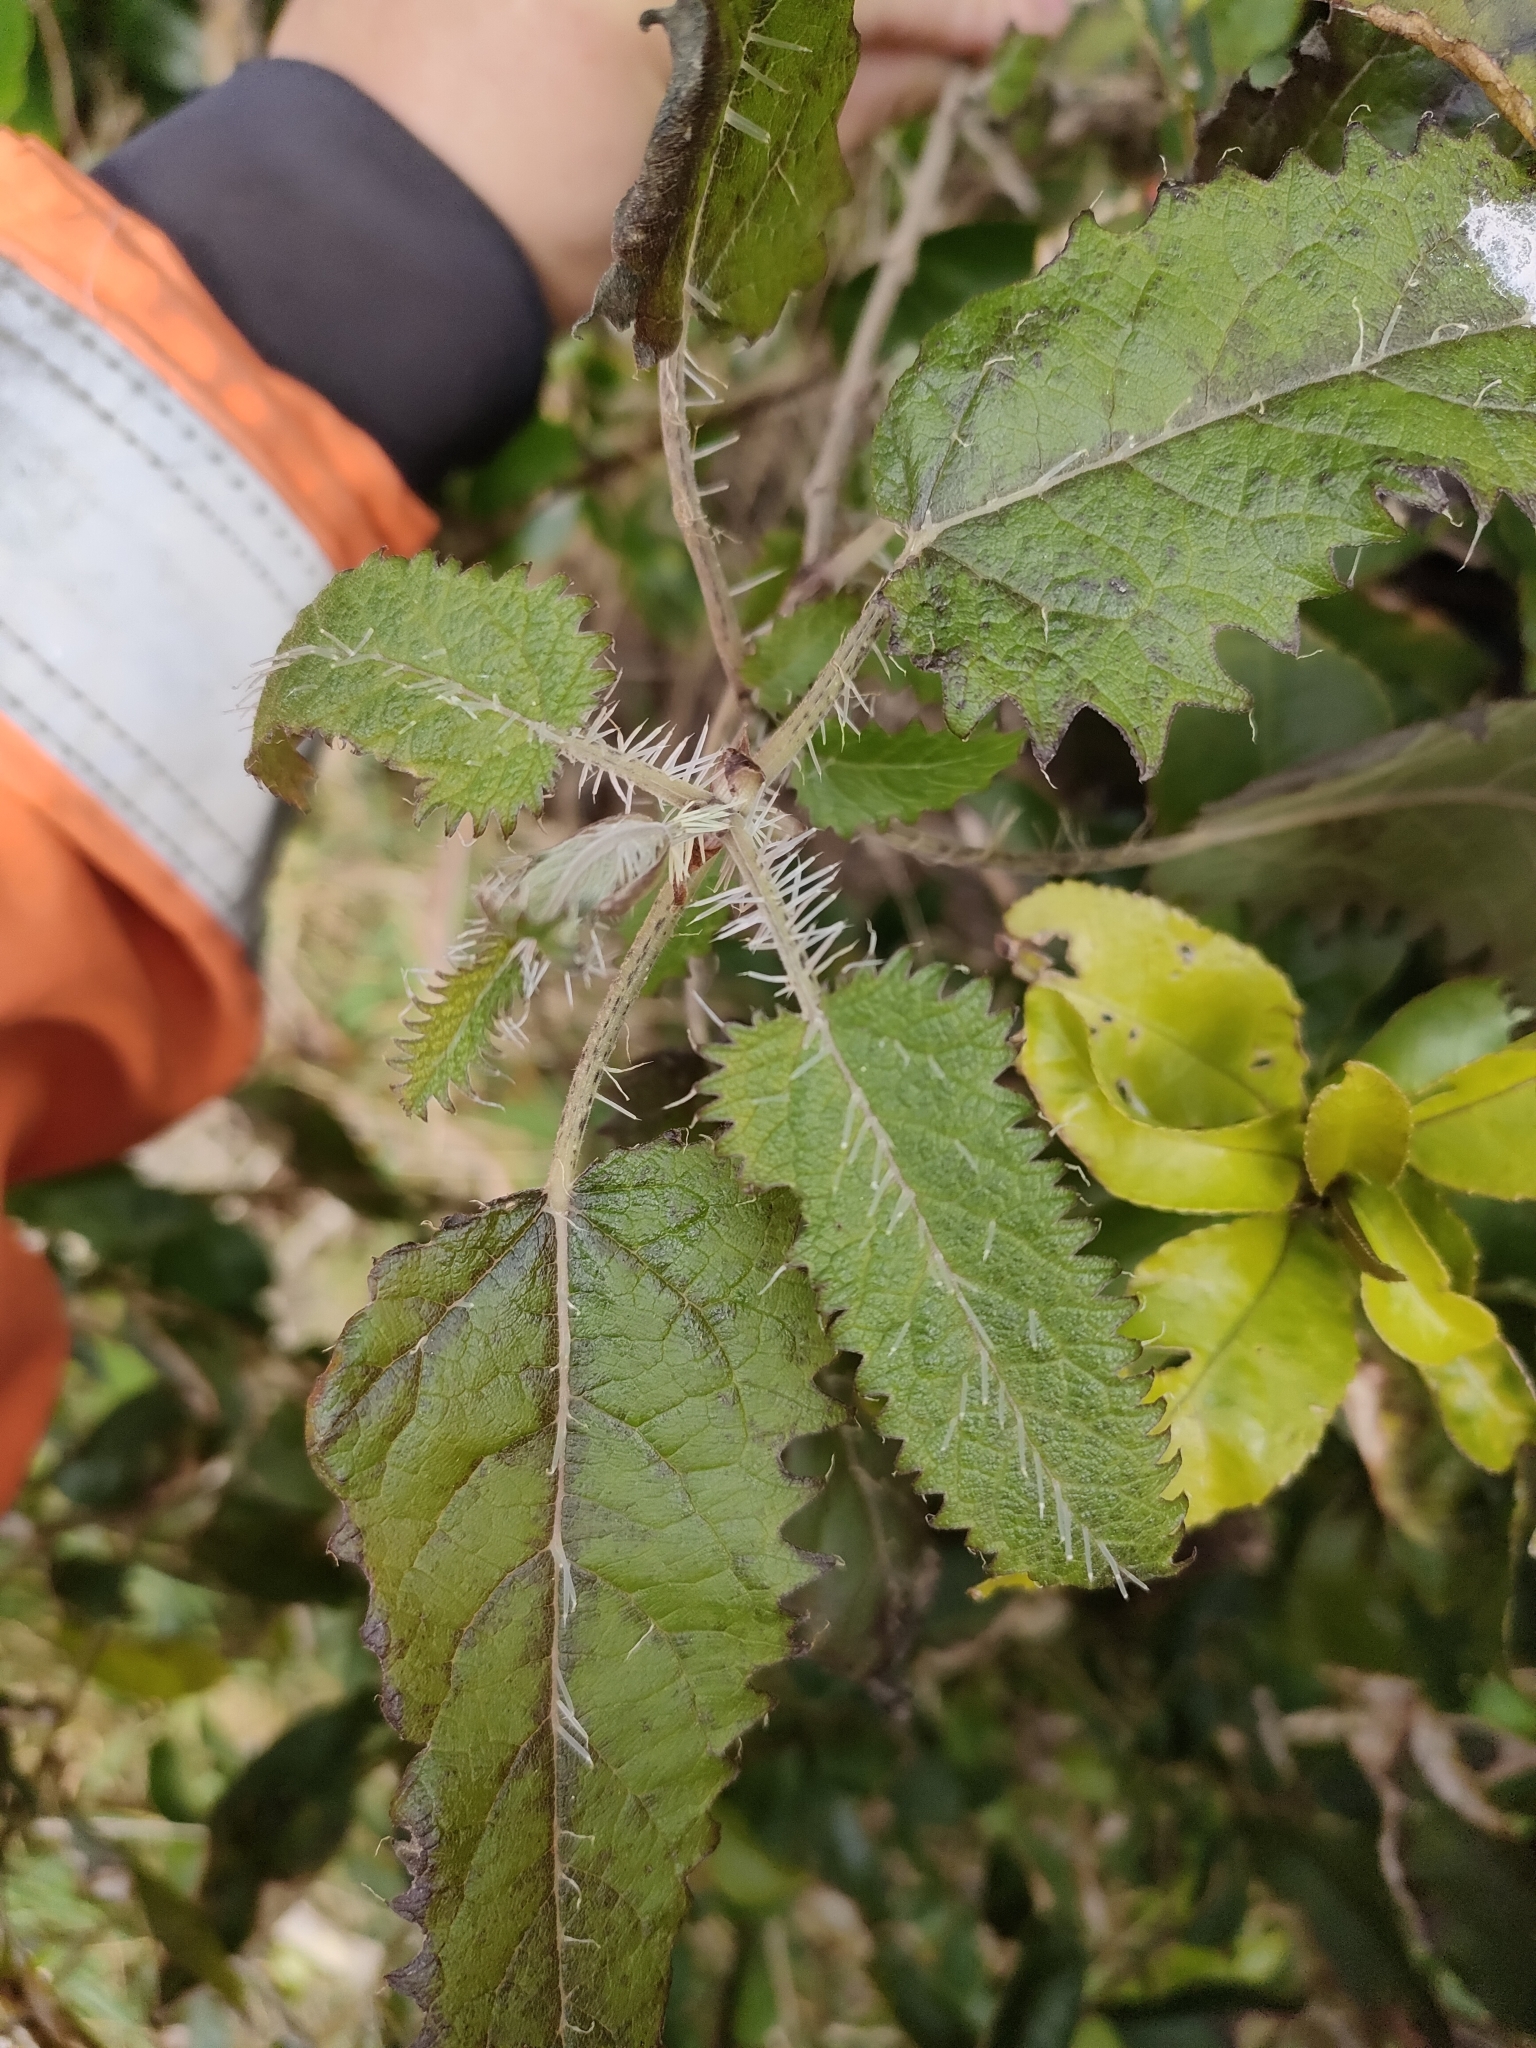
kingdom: Plantae
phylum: Tracheophyta
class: Magnoliopsida
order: Rosales
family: Urticaceae
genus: Urtica
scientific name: Urtica ferox
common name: Tree nettle
